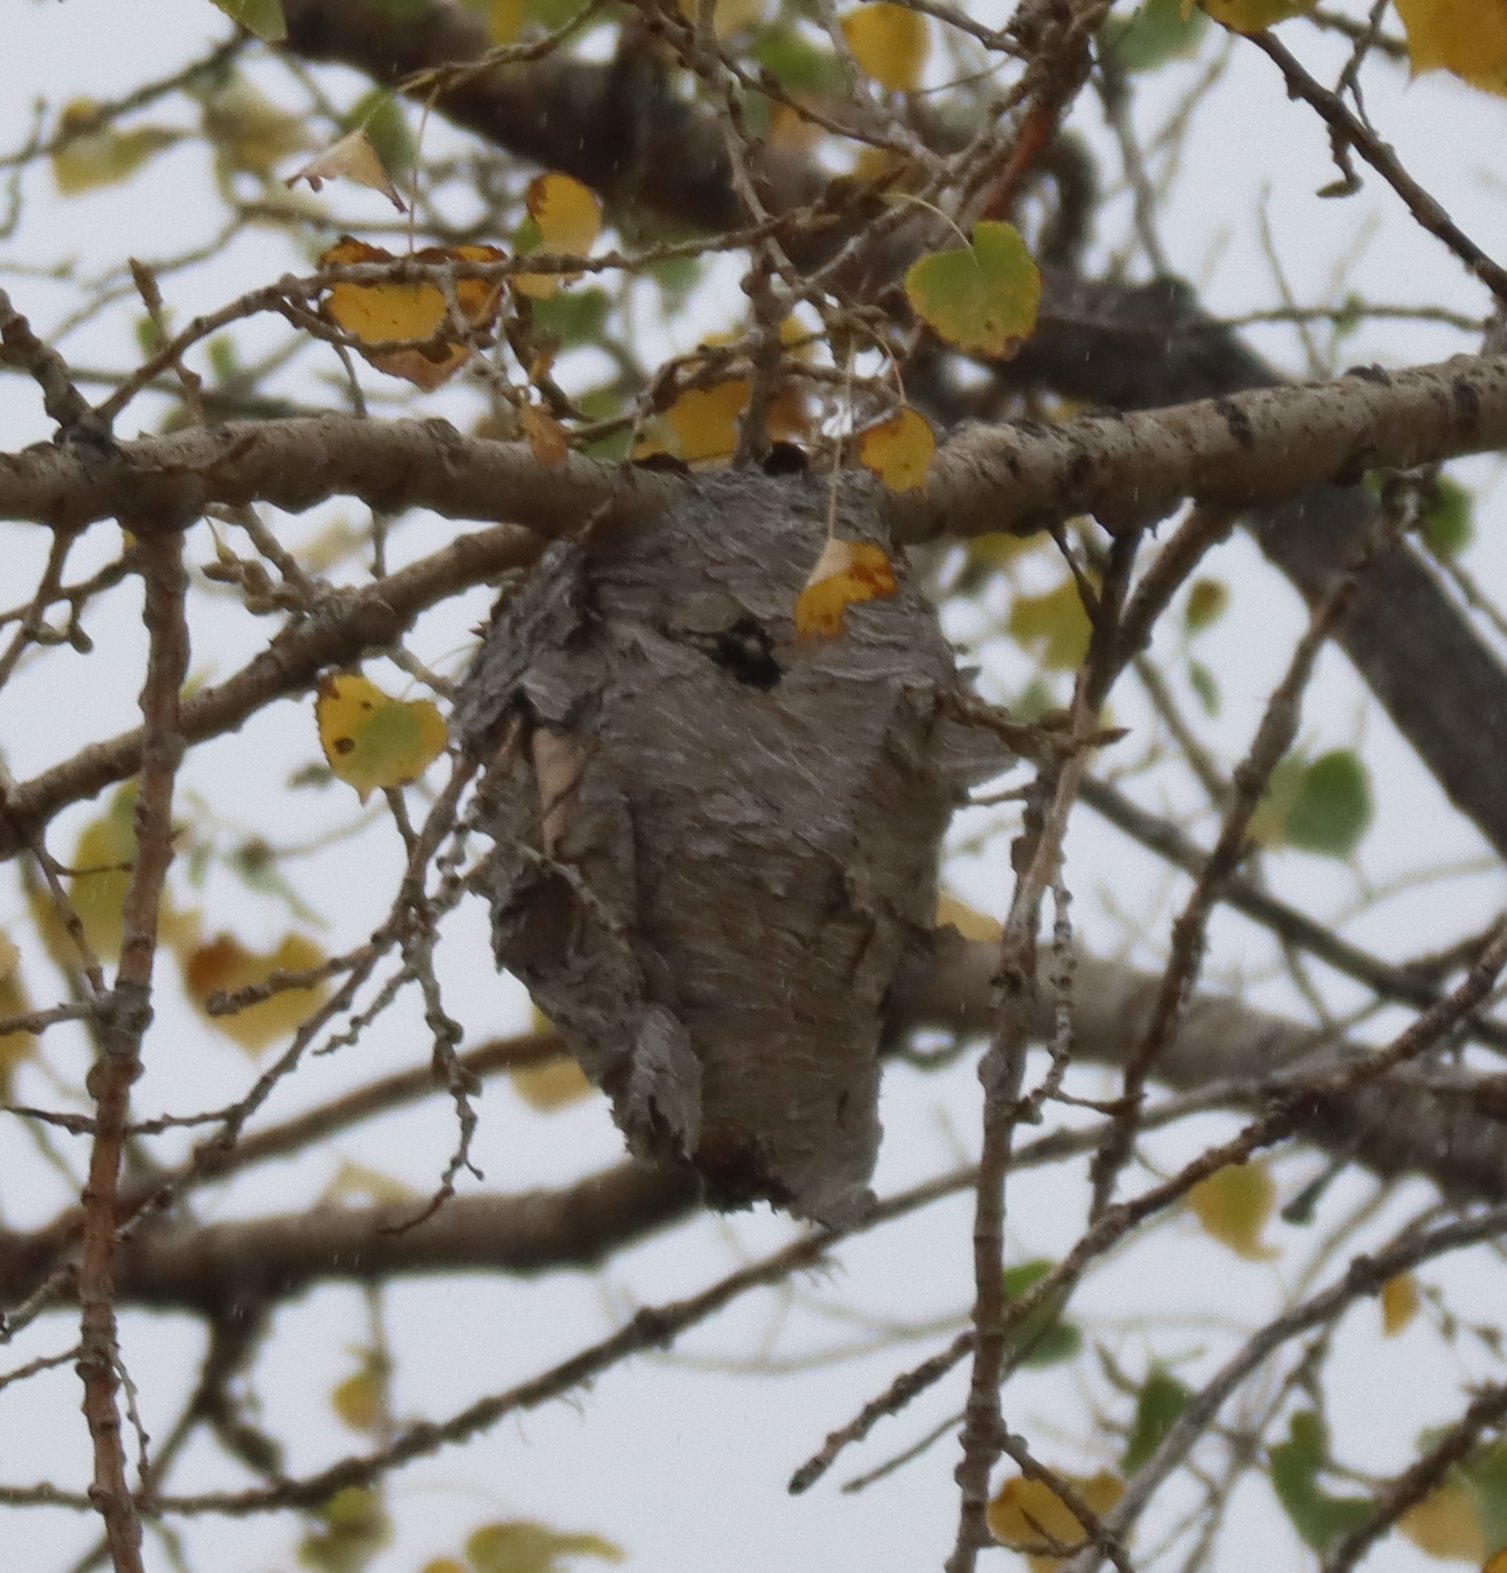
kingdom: Animalia
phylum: Arthropoda
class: Insecta
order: Hymenoptera
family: Vespidae
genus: Dolichovespula
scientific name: Dolichovespula
